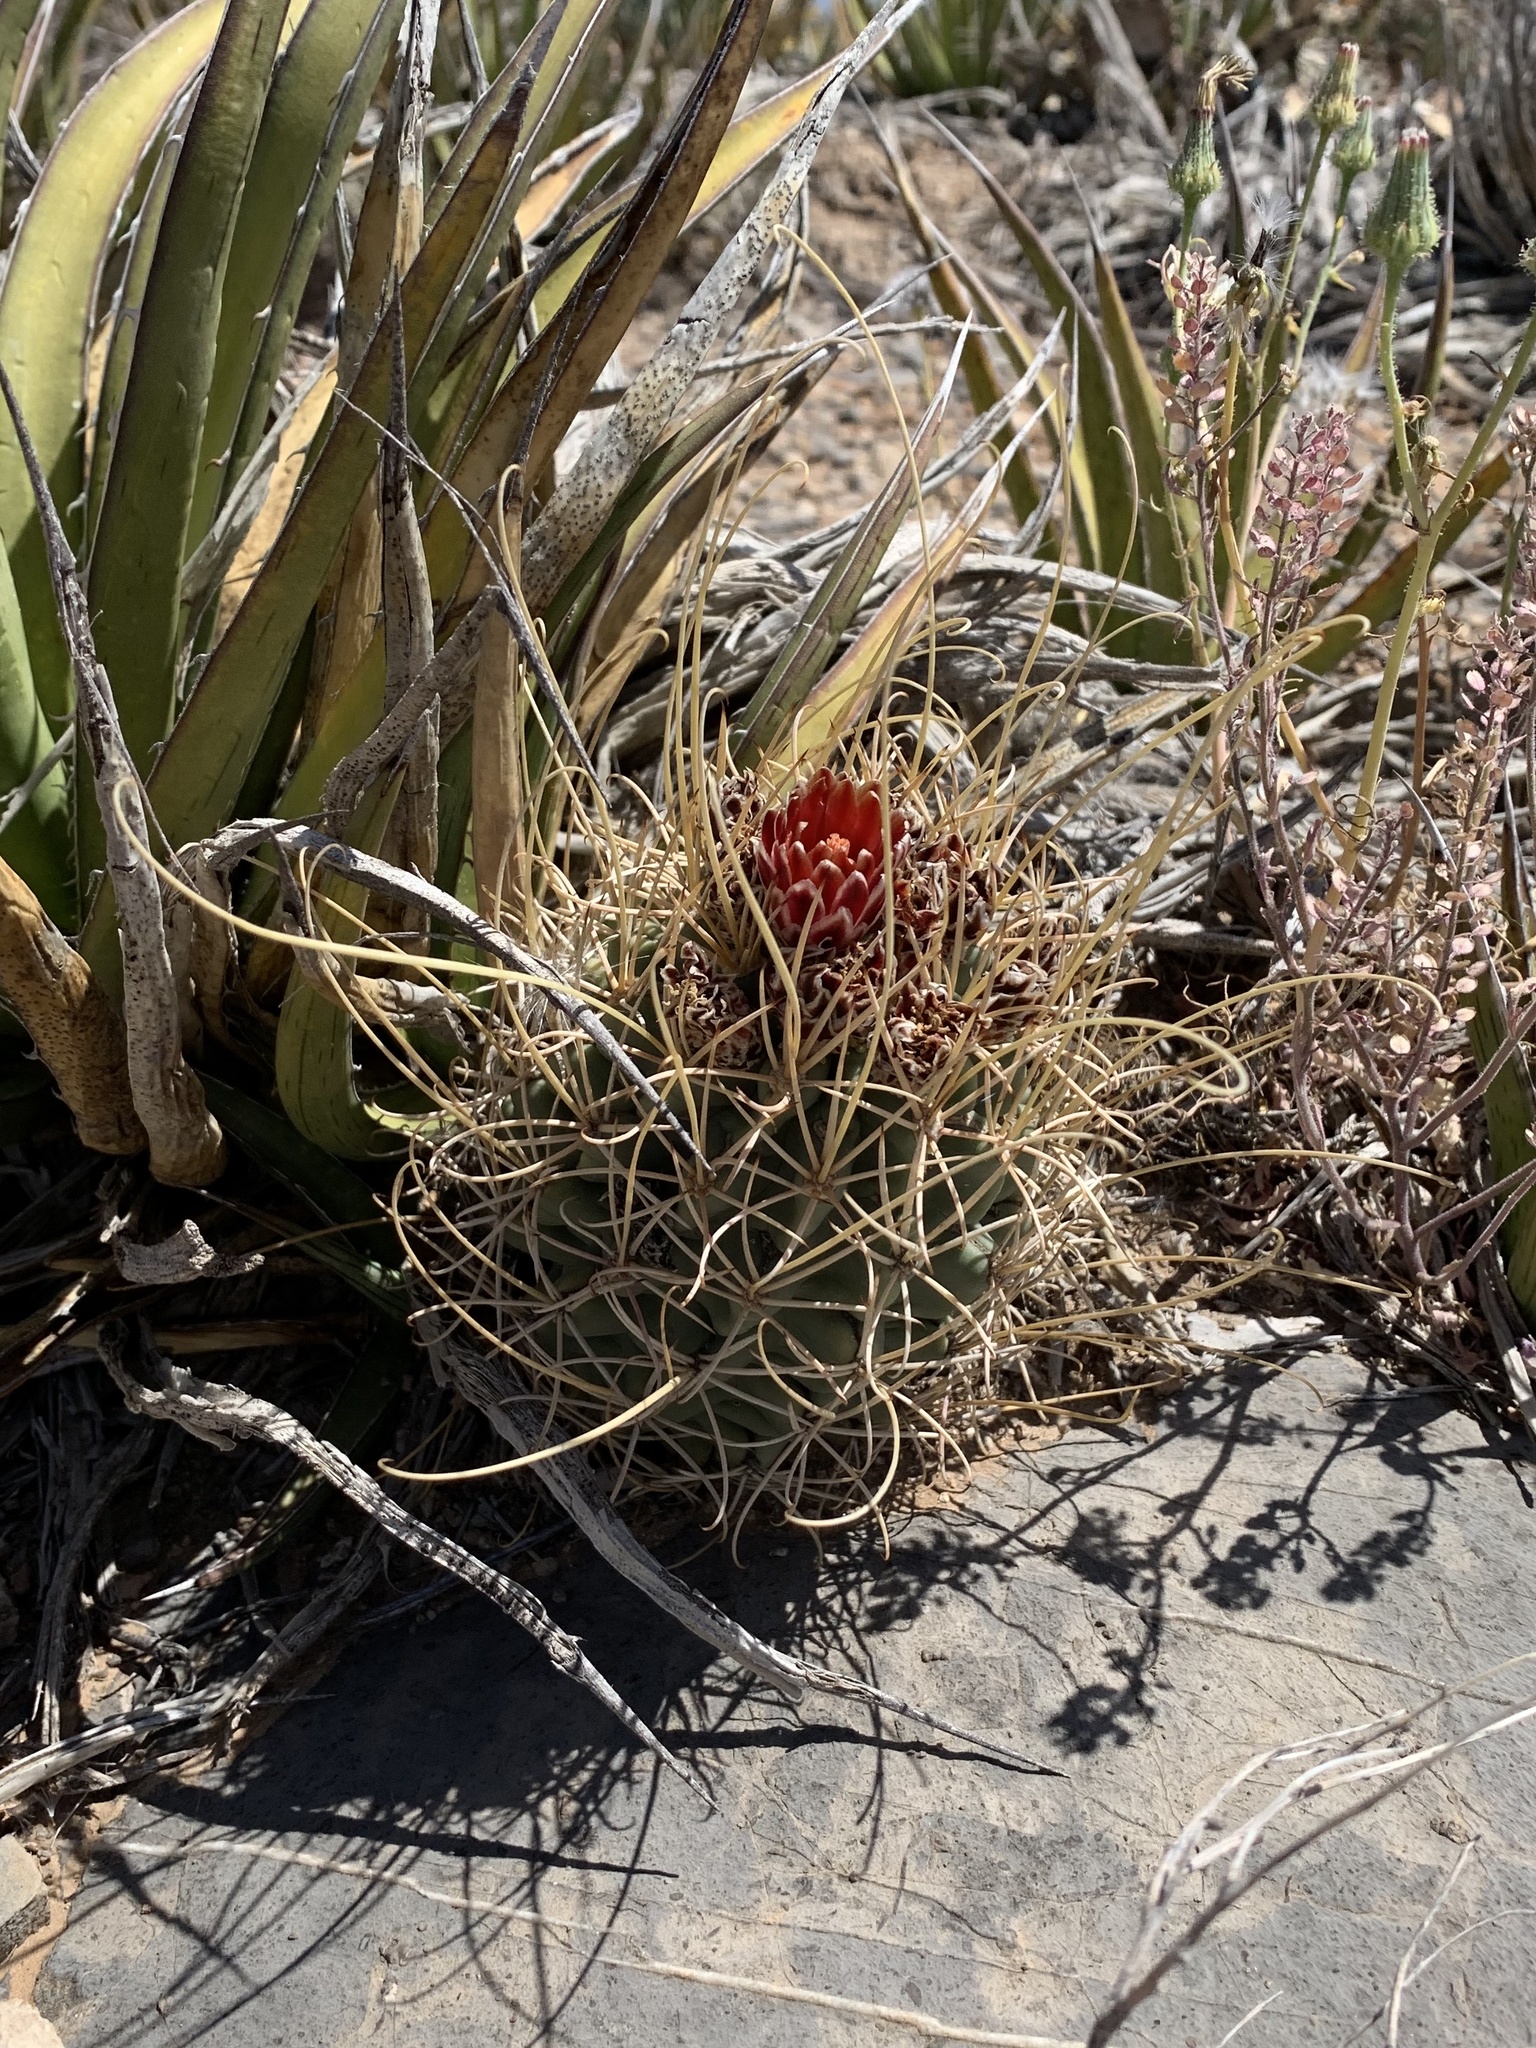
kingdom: Plantae
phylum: Tracheophyta
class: Magnoliopsida
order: Caryophyllales
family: Cactaceae
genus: Ferocactus
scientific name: Ferocactus uncinatus
